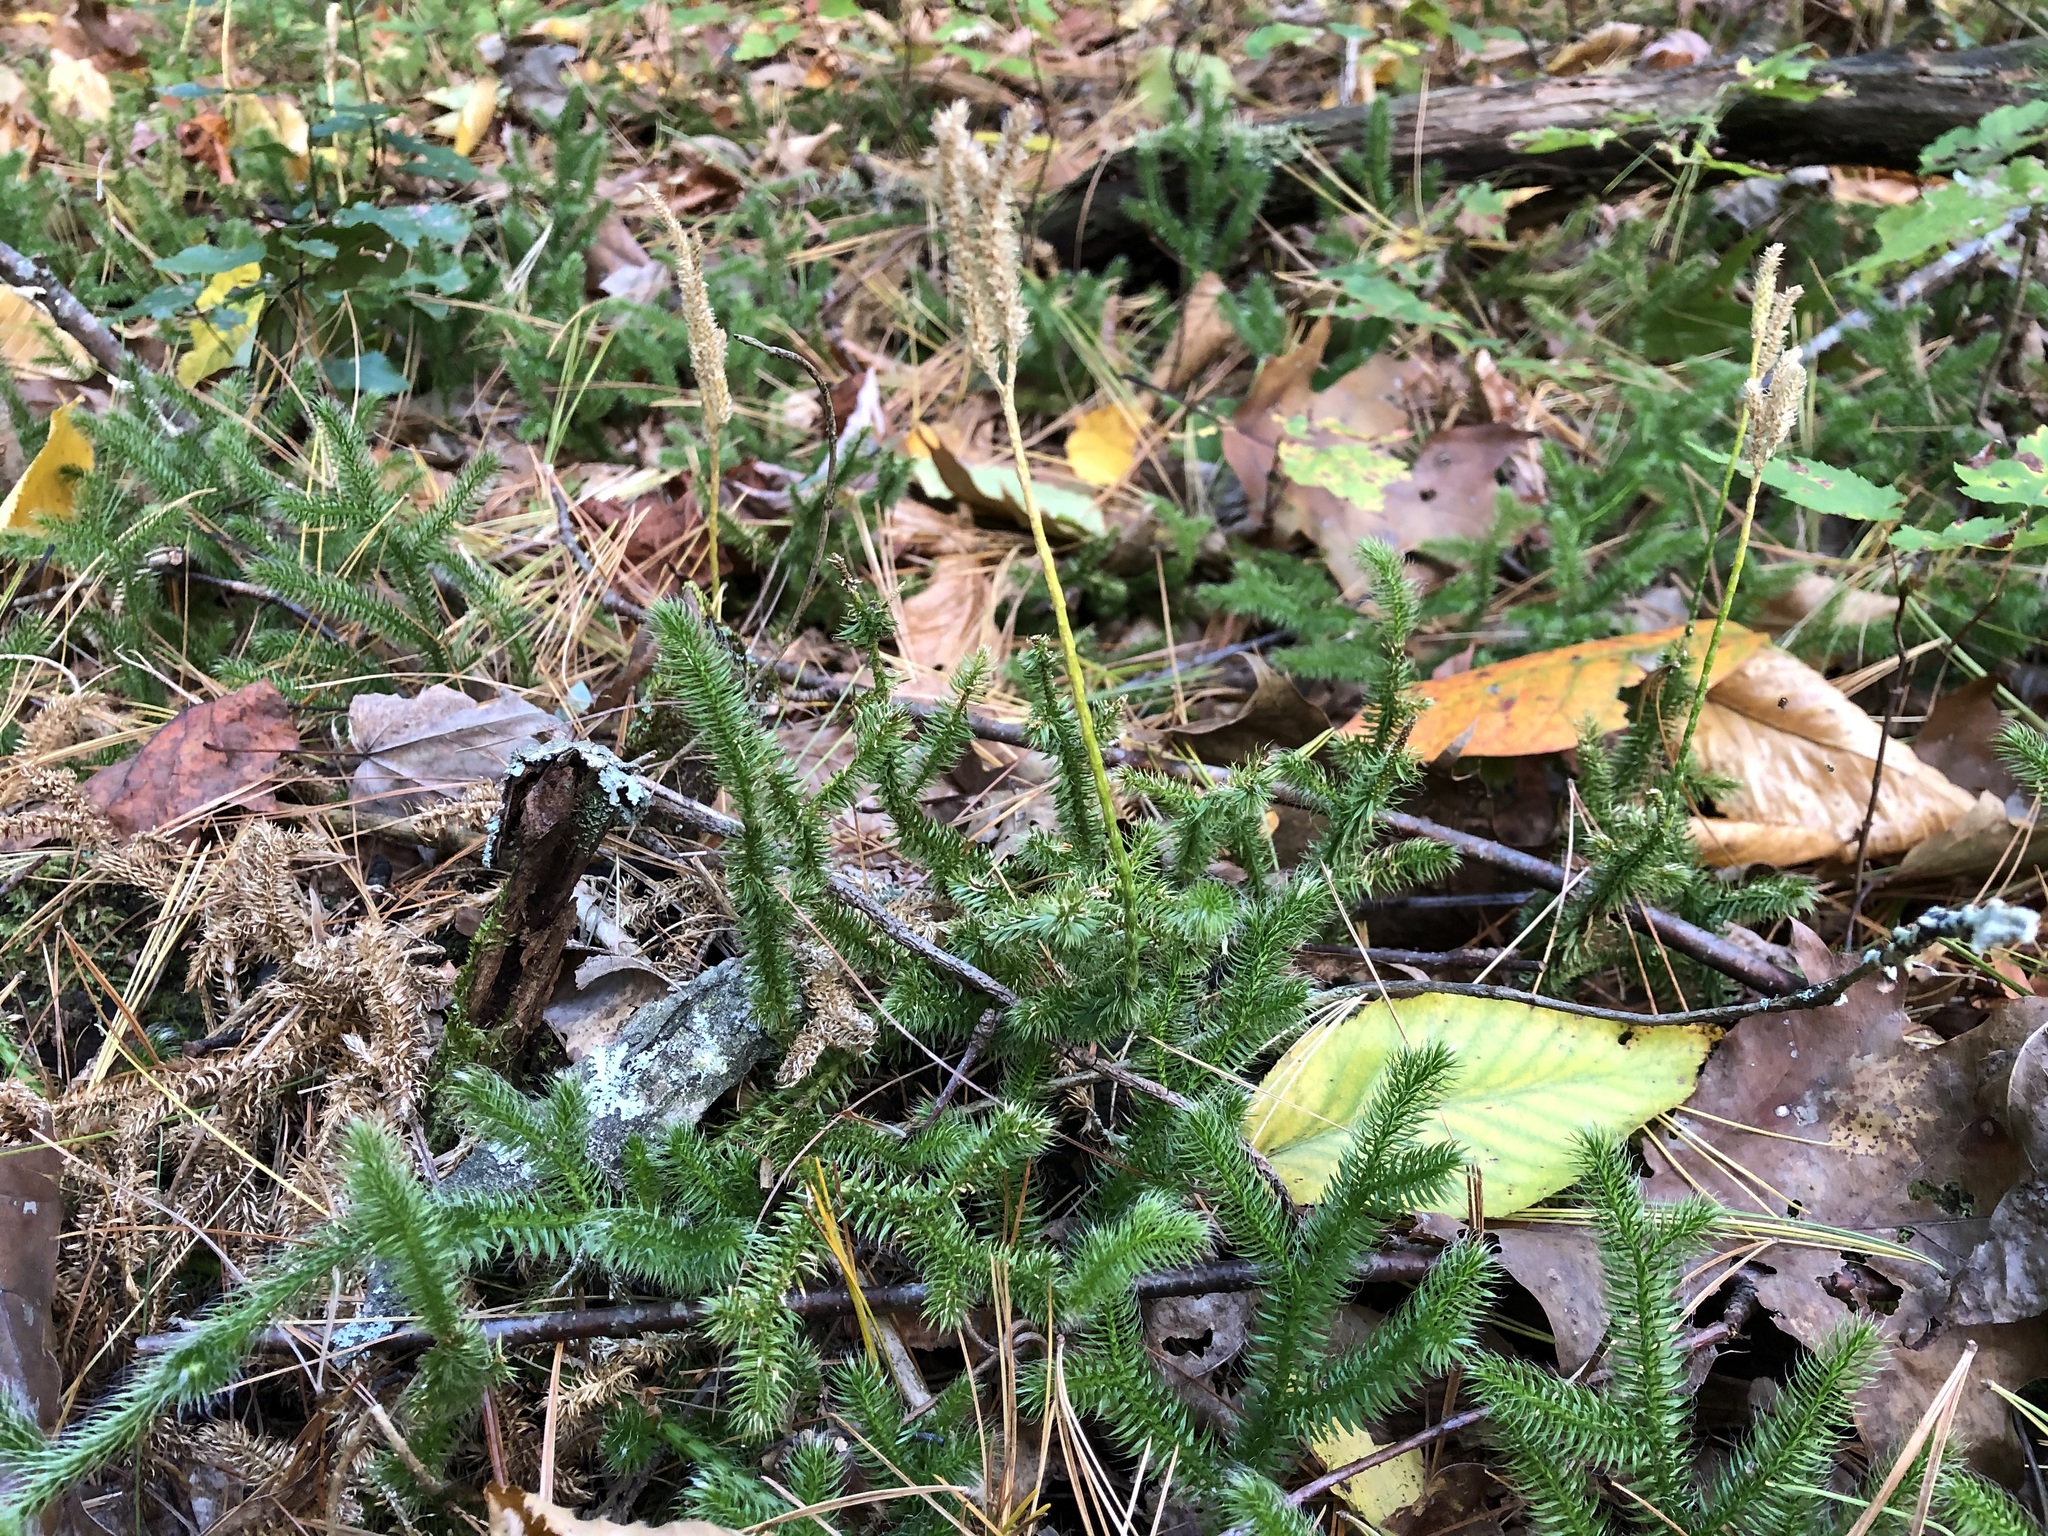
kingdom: Plantae
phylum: Tracheophyta
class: Lycopodiopsida
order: Lycopodiales
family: Lycopodiaceae
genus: Lycopodium
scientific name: Lycopodium clavatum
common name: Stag's-horn clubmoss
